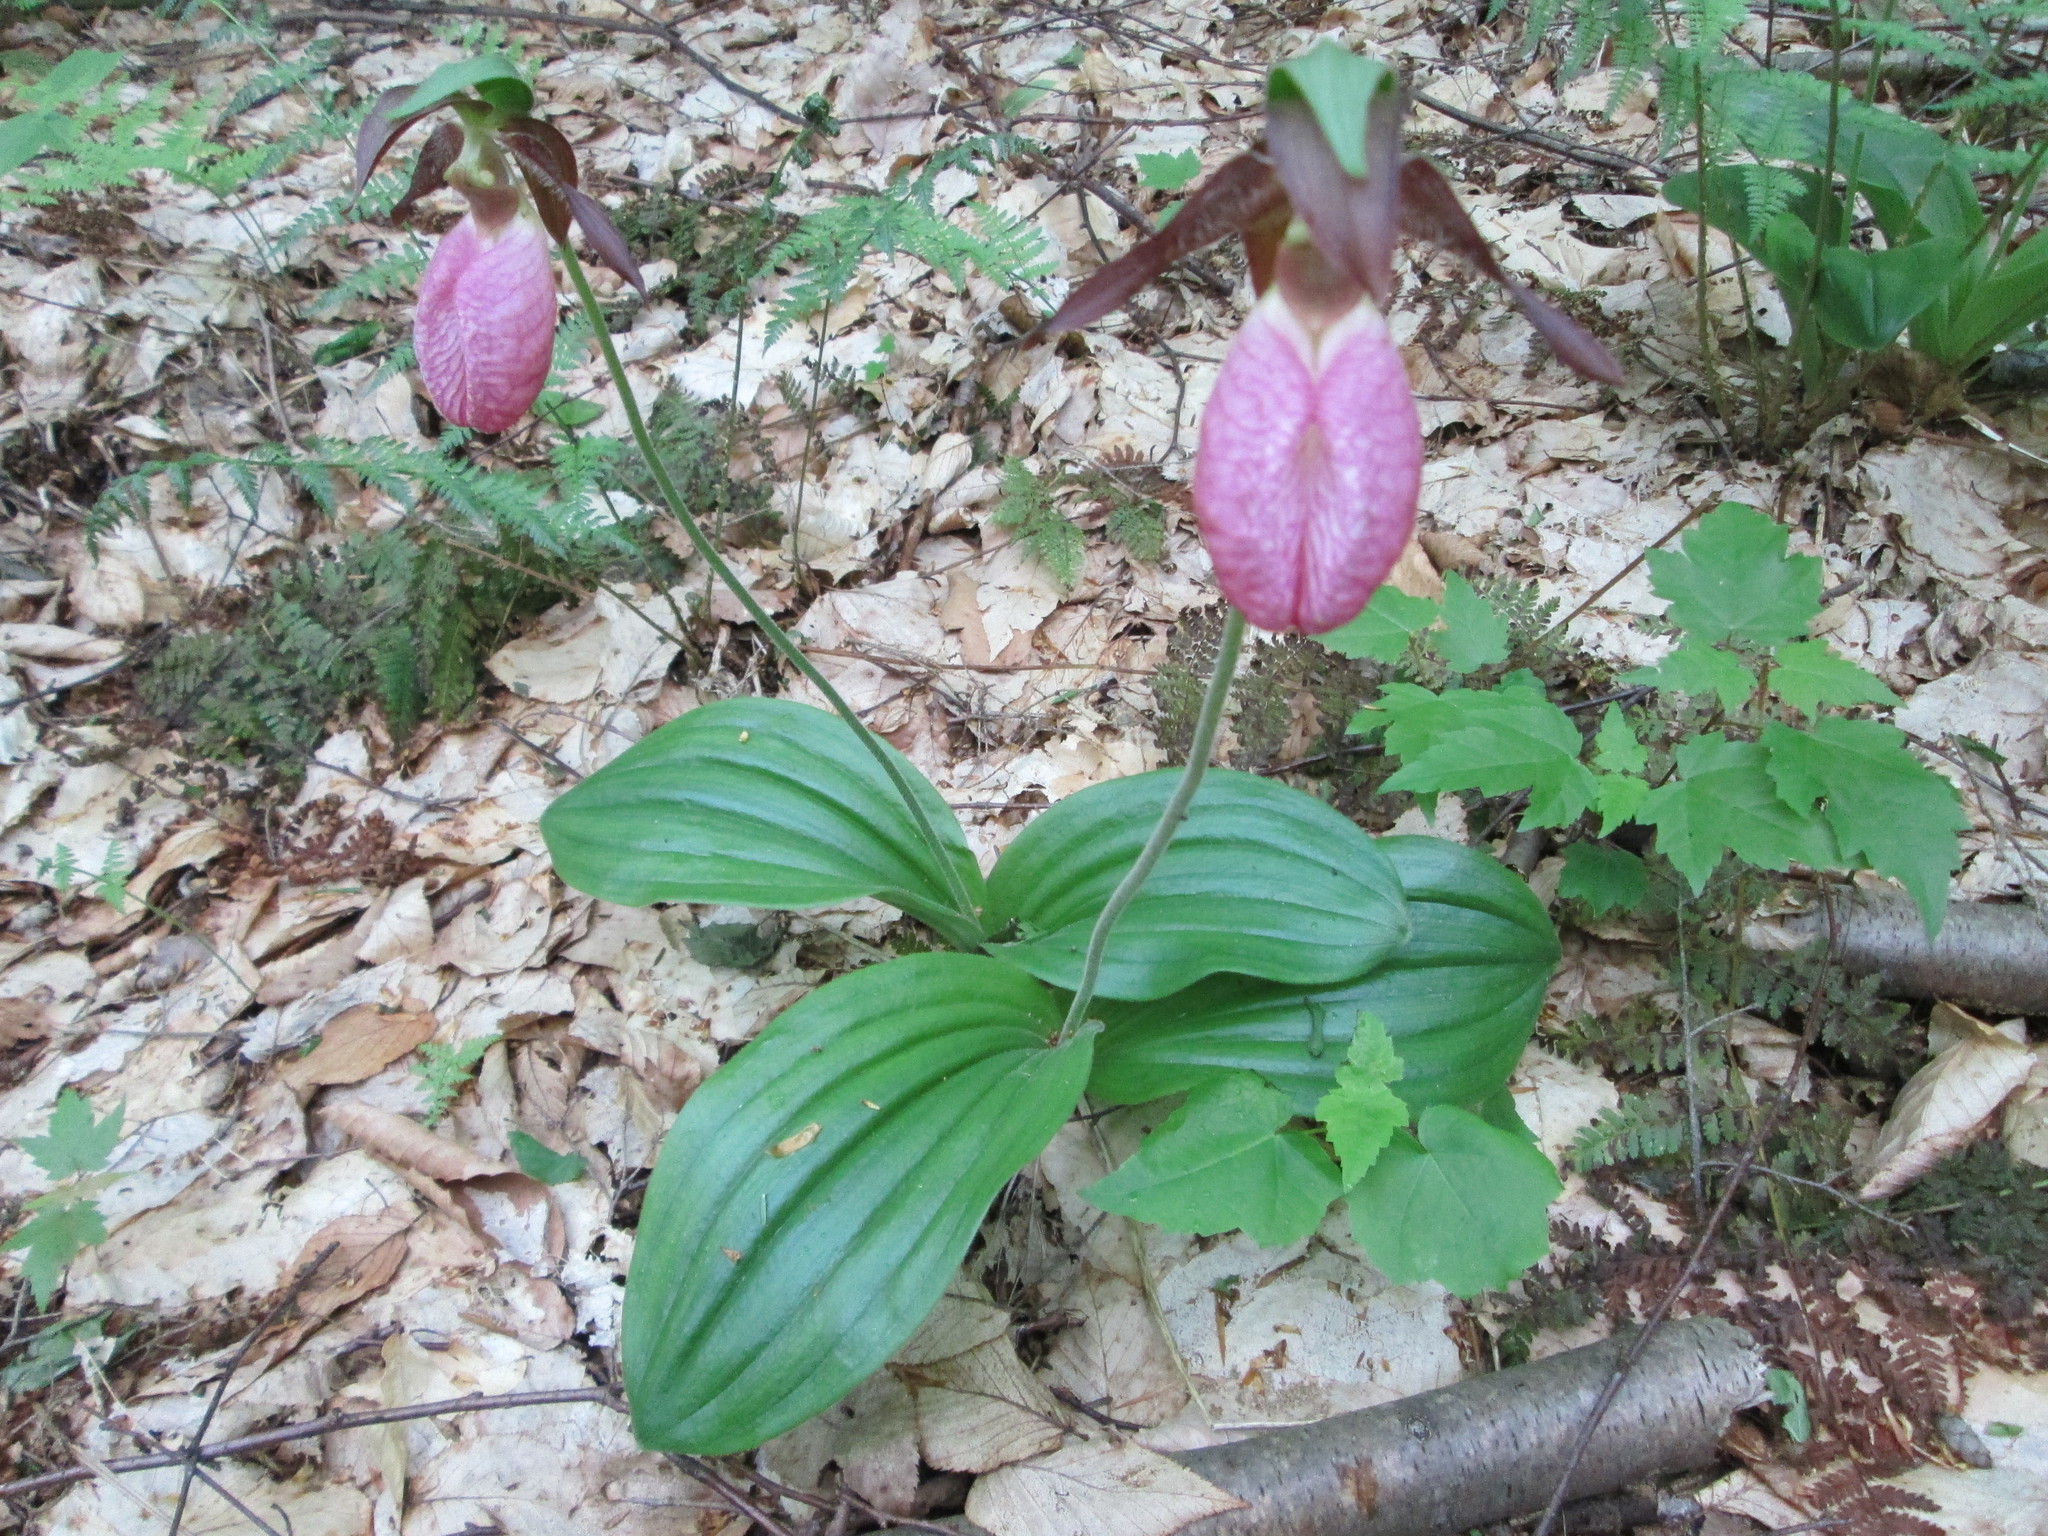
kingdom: Plantae
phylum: Tracheophyta
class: Liliopsida
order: Asparagales
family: Orchidaceae
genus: Cypripedium
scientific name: Cypripedium acaule
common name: Pink lady's-slipper
